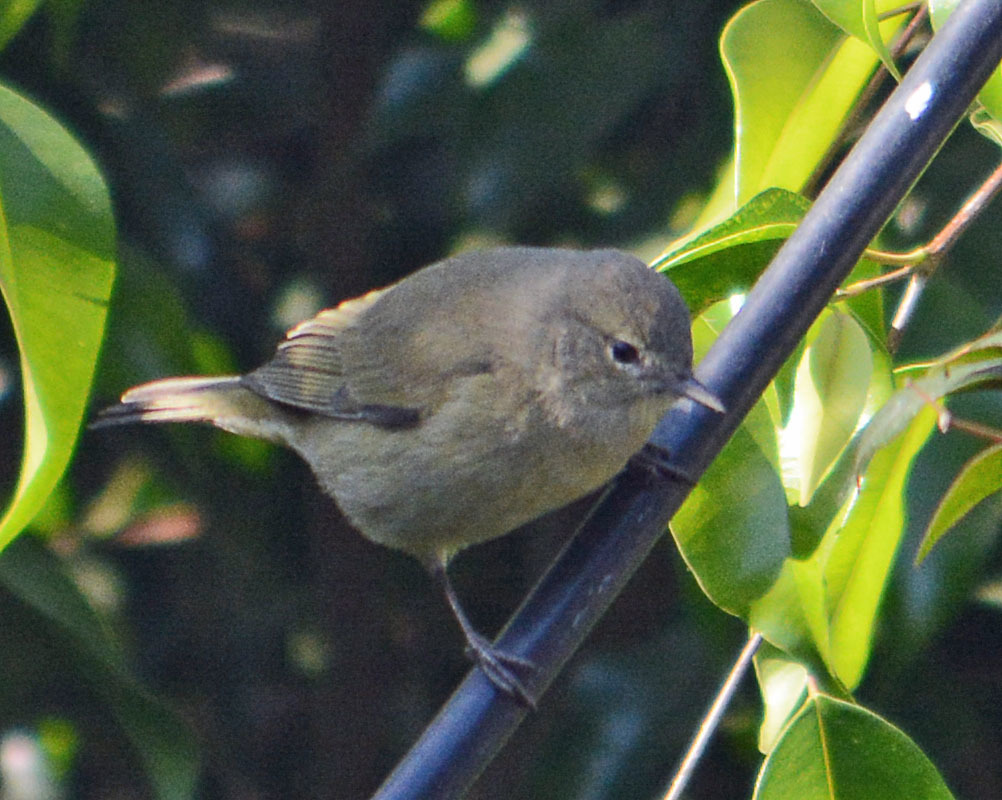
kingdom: Animalia
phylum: Chordata
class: Aves
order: Passeriformes
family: Parulidae
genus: Leiothlypis
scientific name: Leiothlypis celata
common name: Orange-crowned warbler
